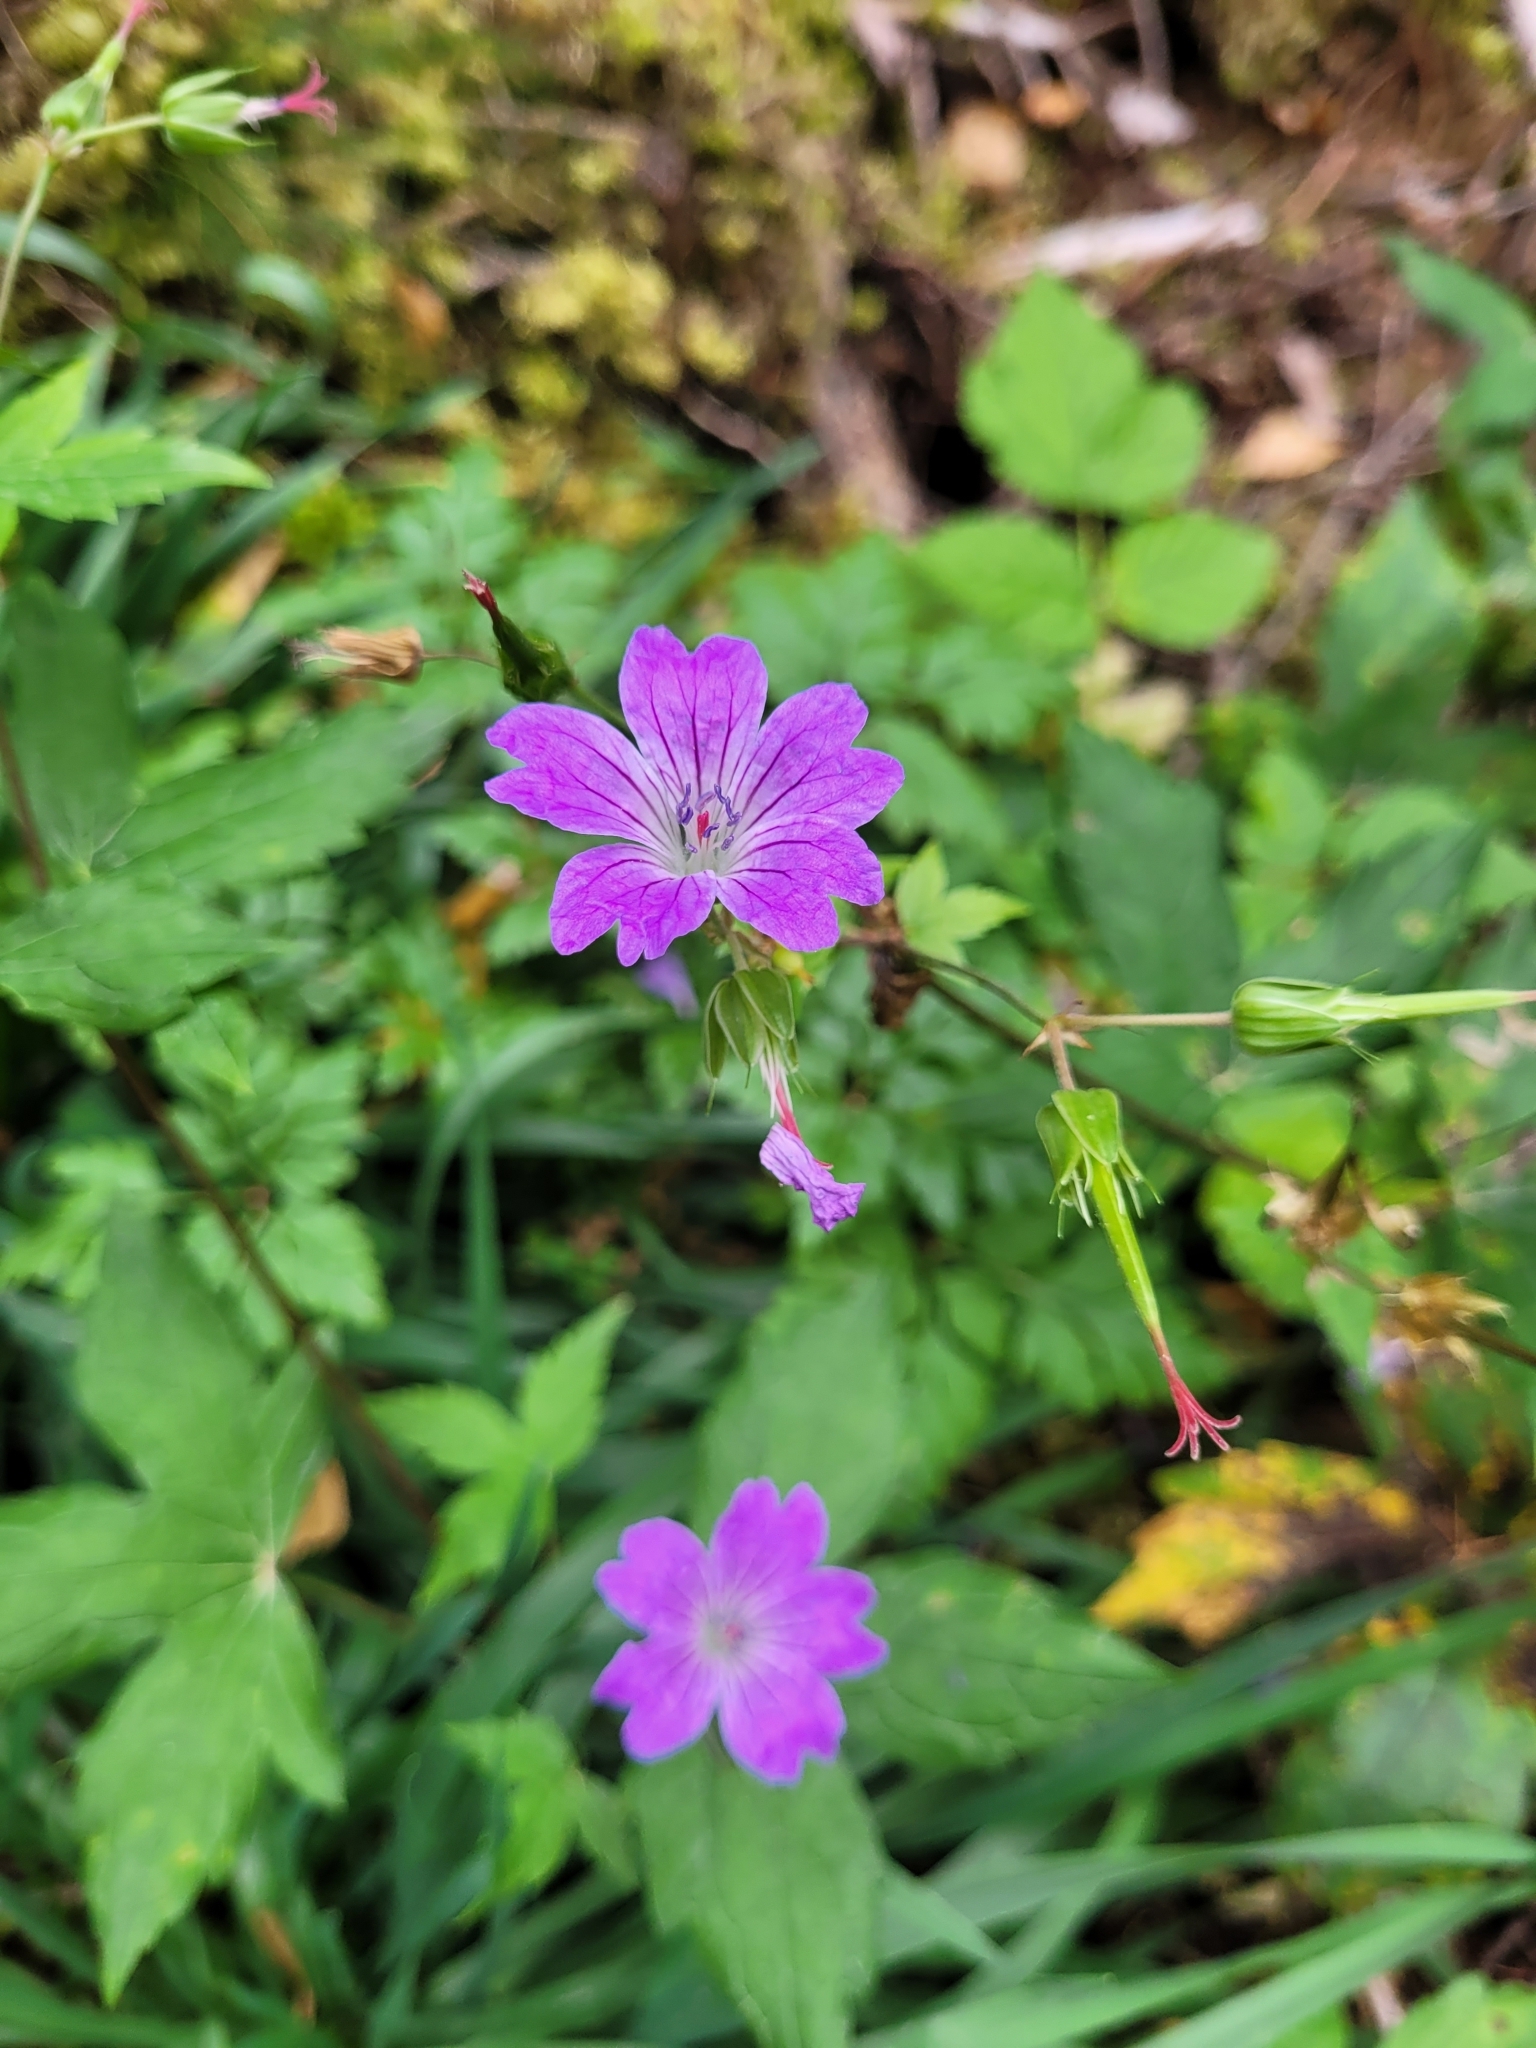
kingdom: Plantae
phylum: Tracheophyta
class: Magnoliopsida
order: Geraniales
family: Geraniaceae
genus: Geranium
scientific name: Geranium nodosum
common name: Knotted crane's-bill
